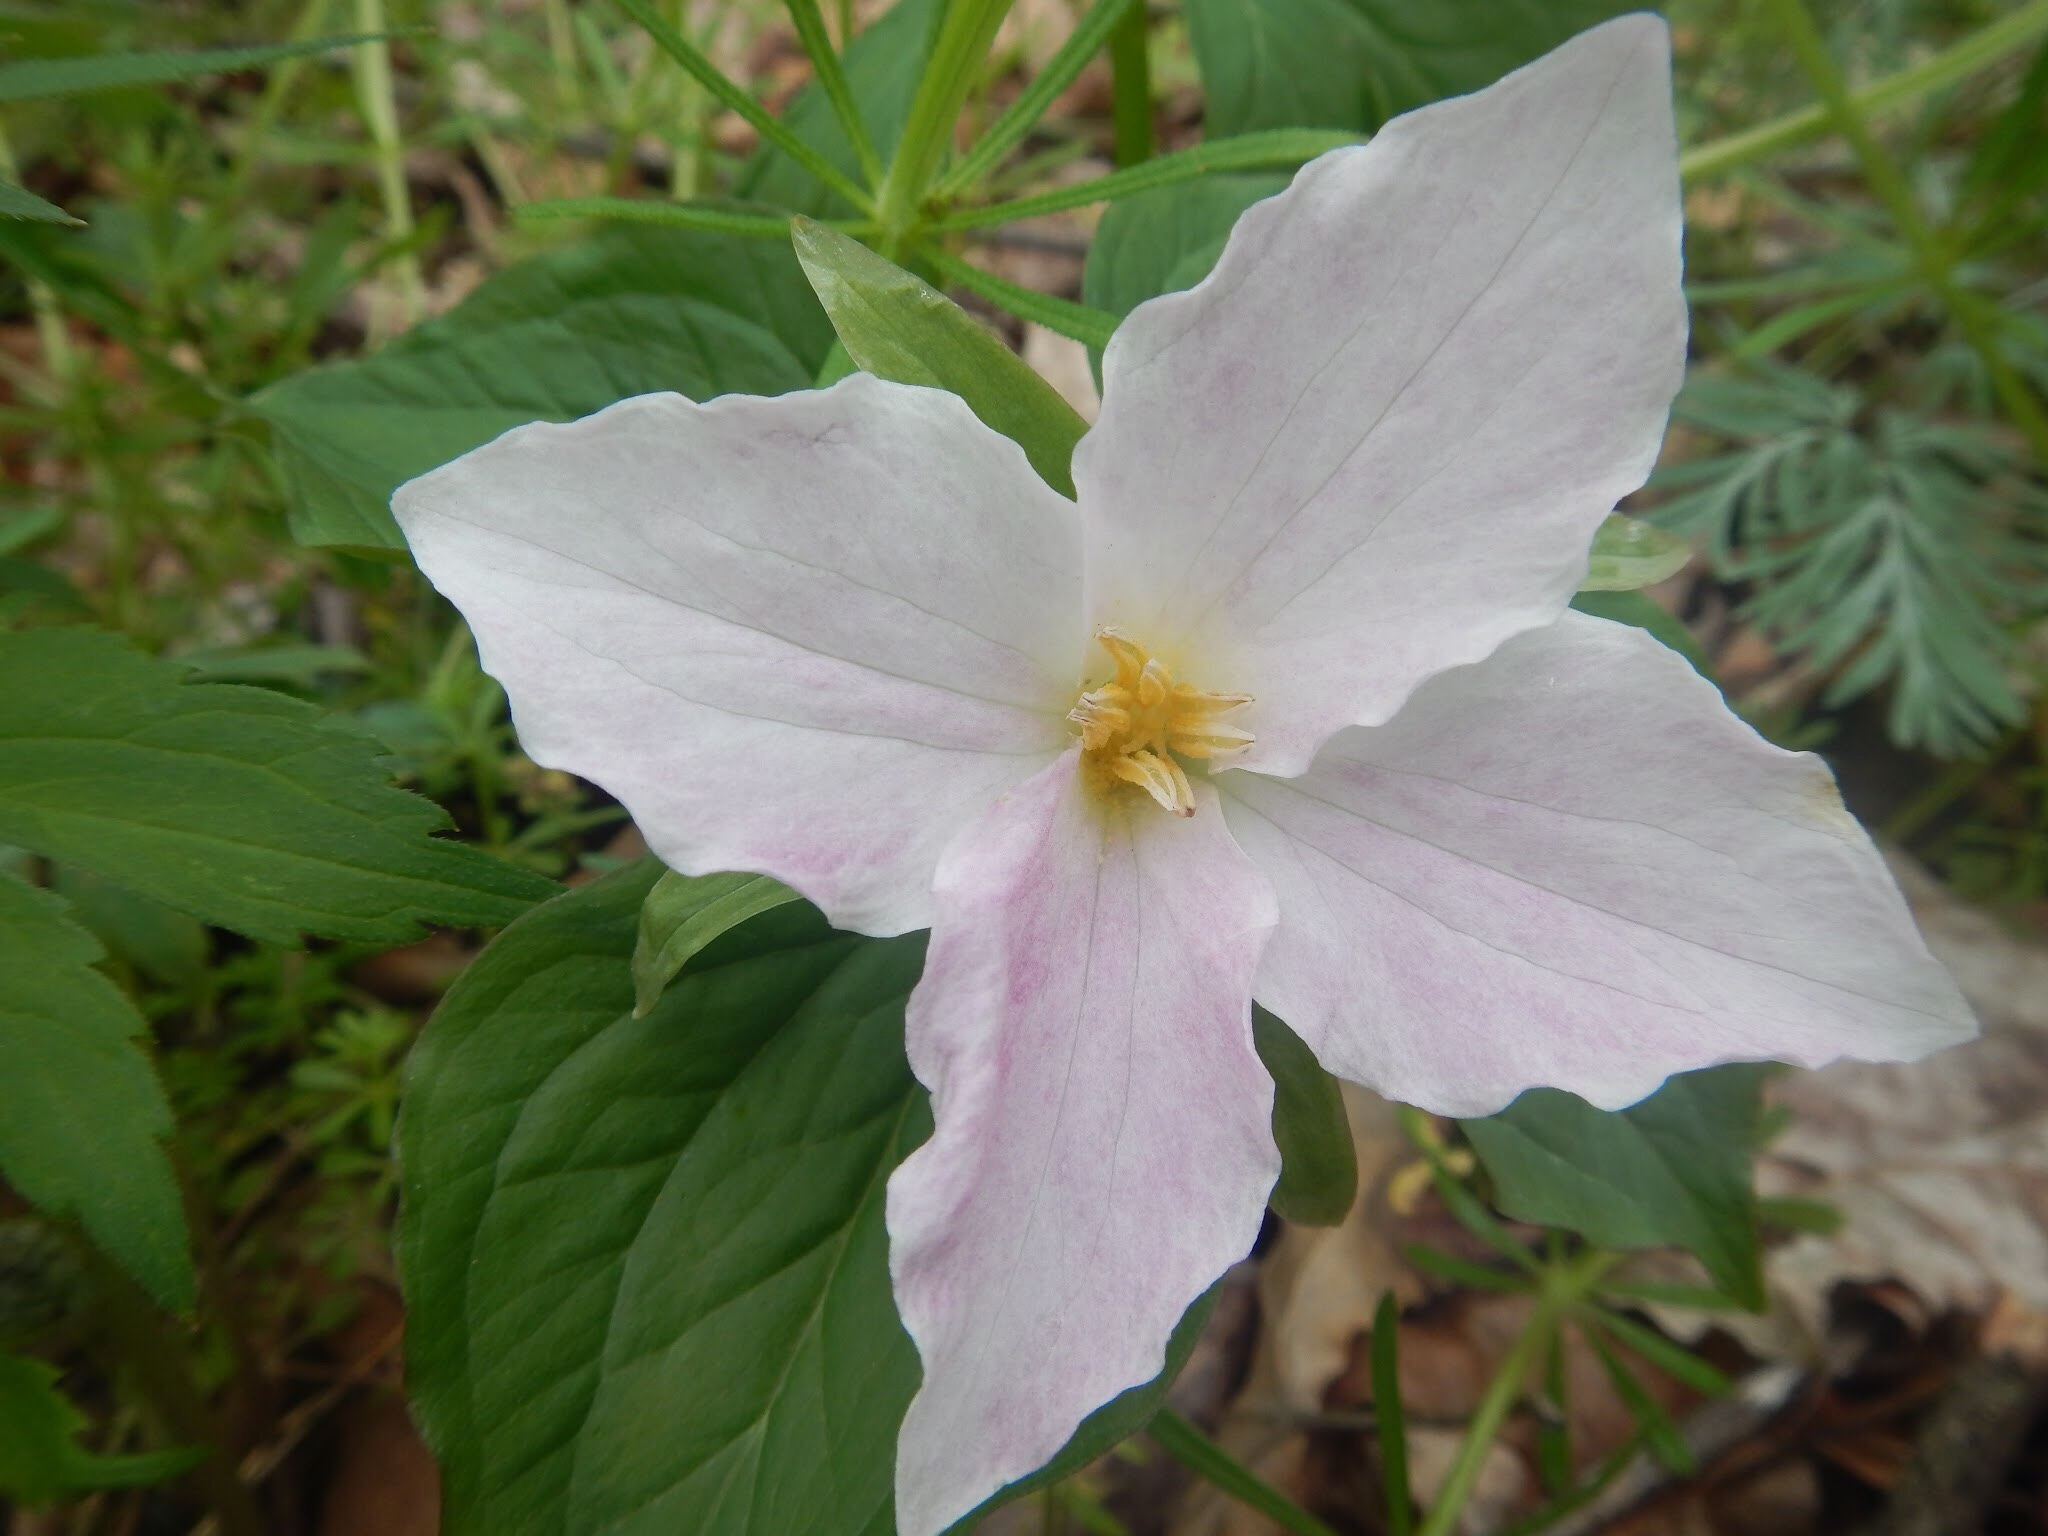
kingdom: Plantae
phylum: Tracheophyta
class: Liliopsida
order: Liliales
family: Melanthiaceae
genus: Trillium
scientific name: Trillium grandiflorum
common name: Great white trillium
